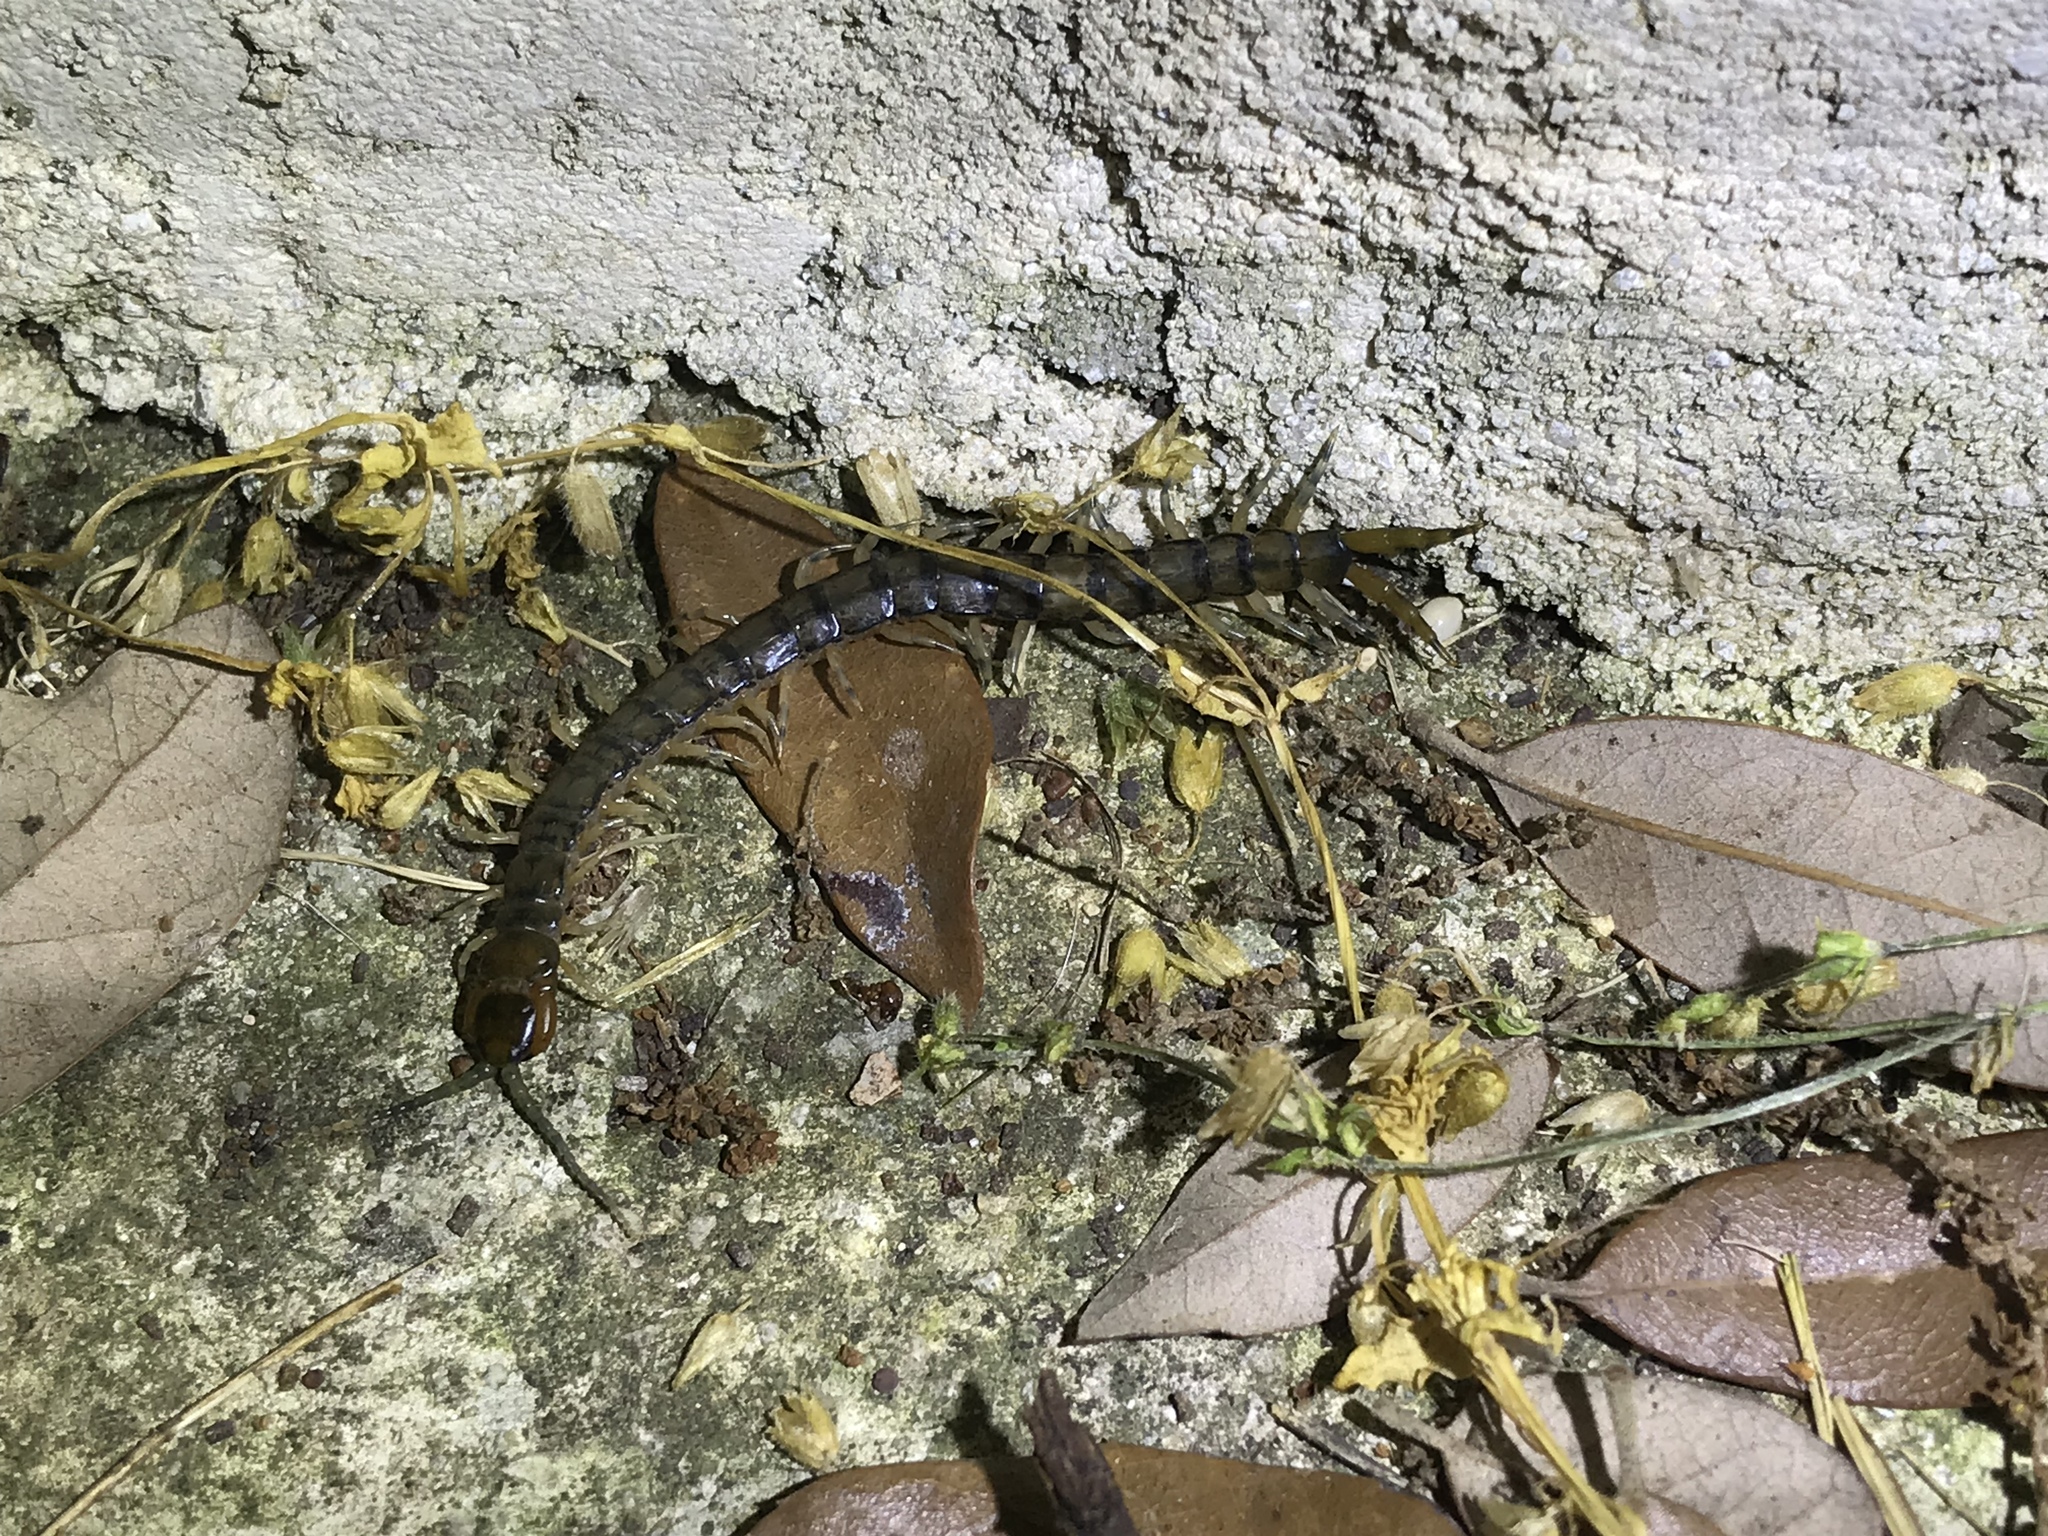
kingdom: Animalia
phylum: Arthropoda
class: Chilopoda
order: Scolopendromorpha
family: Scolopendridae
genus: Hemiscolopendra
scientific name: Hemiscolopendra marginata
